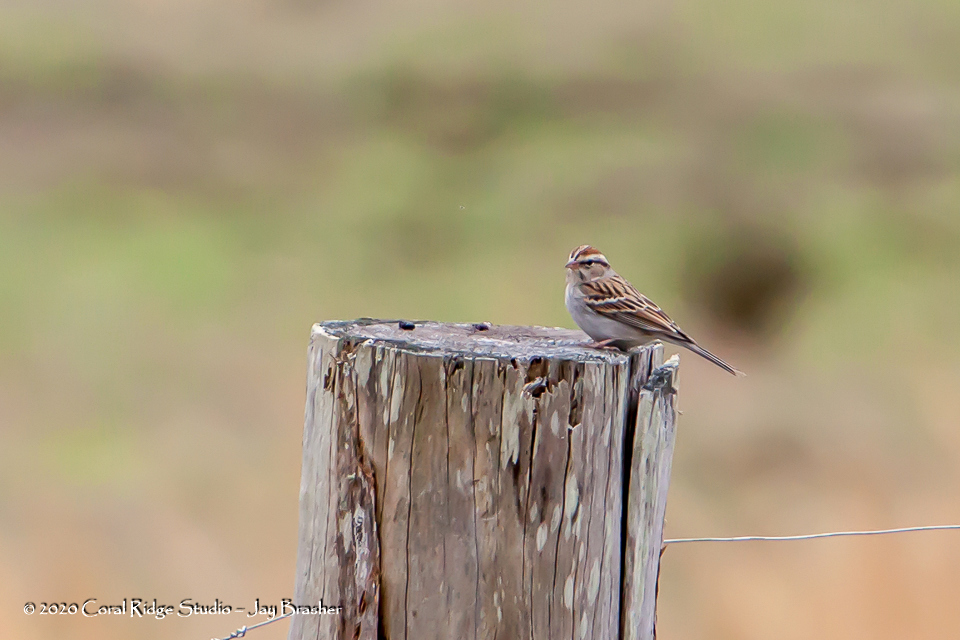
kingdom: Animalia
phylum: Chordata
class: Aves
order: Passeriformes
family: Passerellidae
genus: Spizella
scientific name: Spizella passerina
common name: Chipping sparrow
